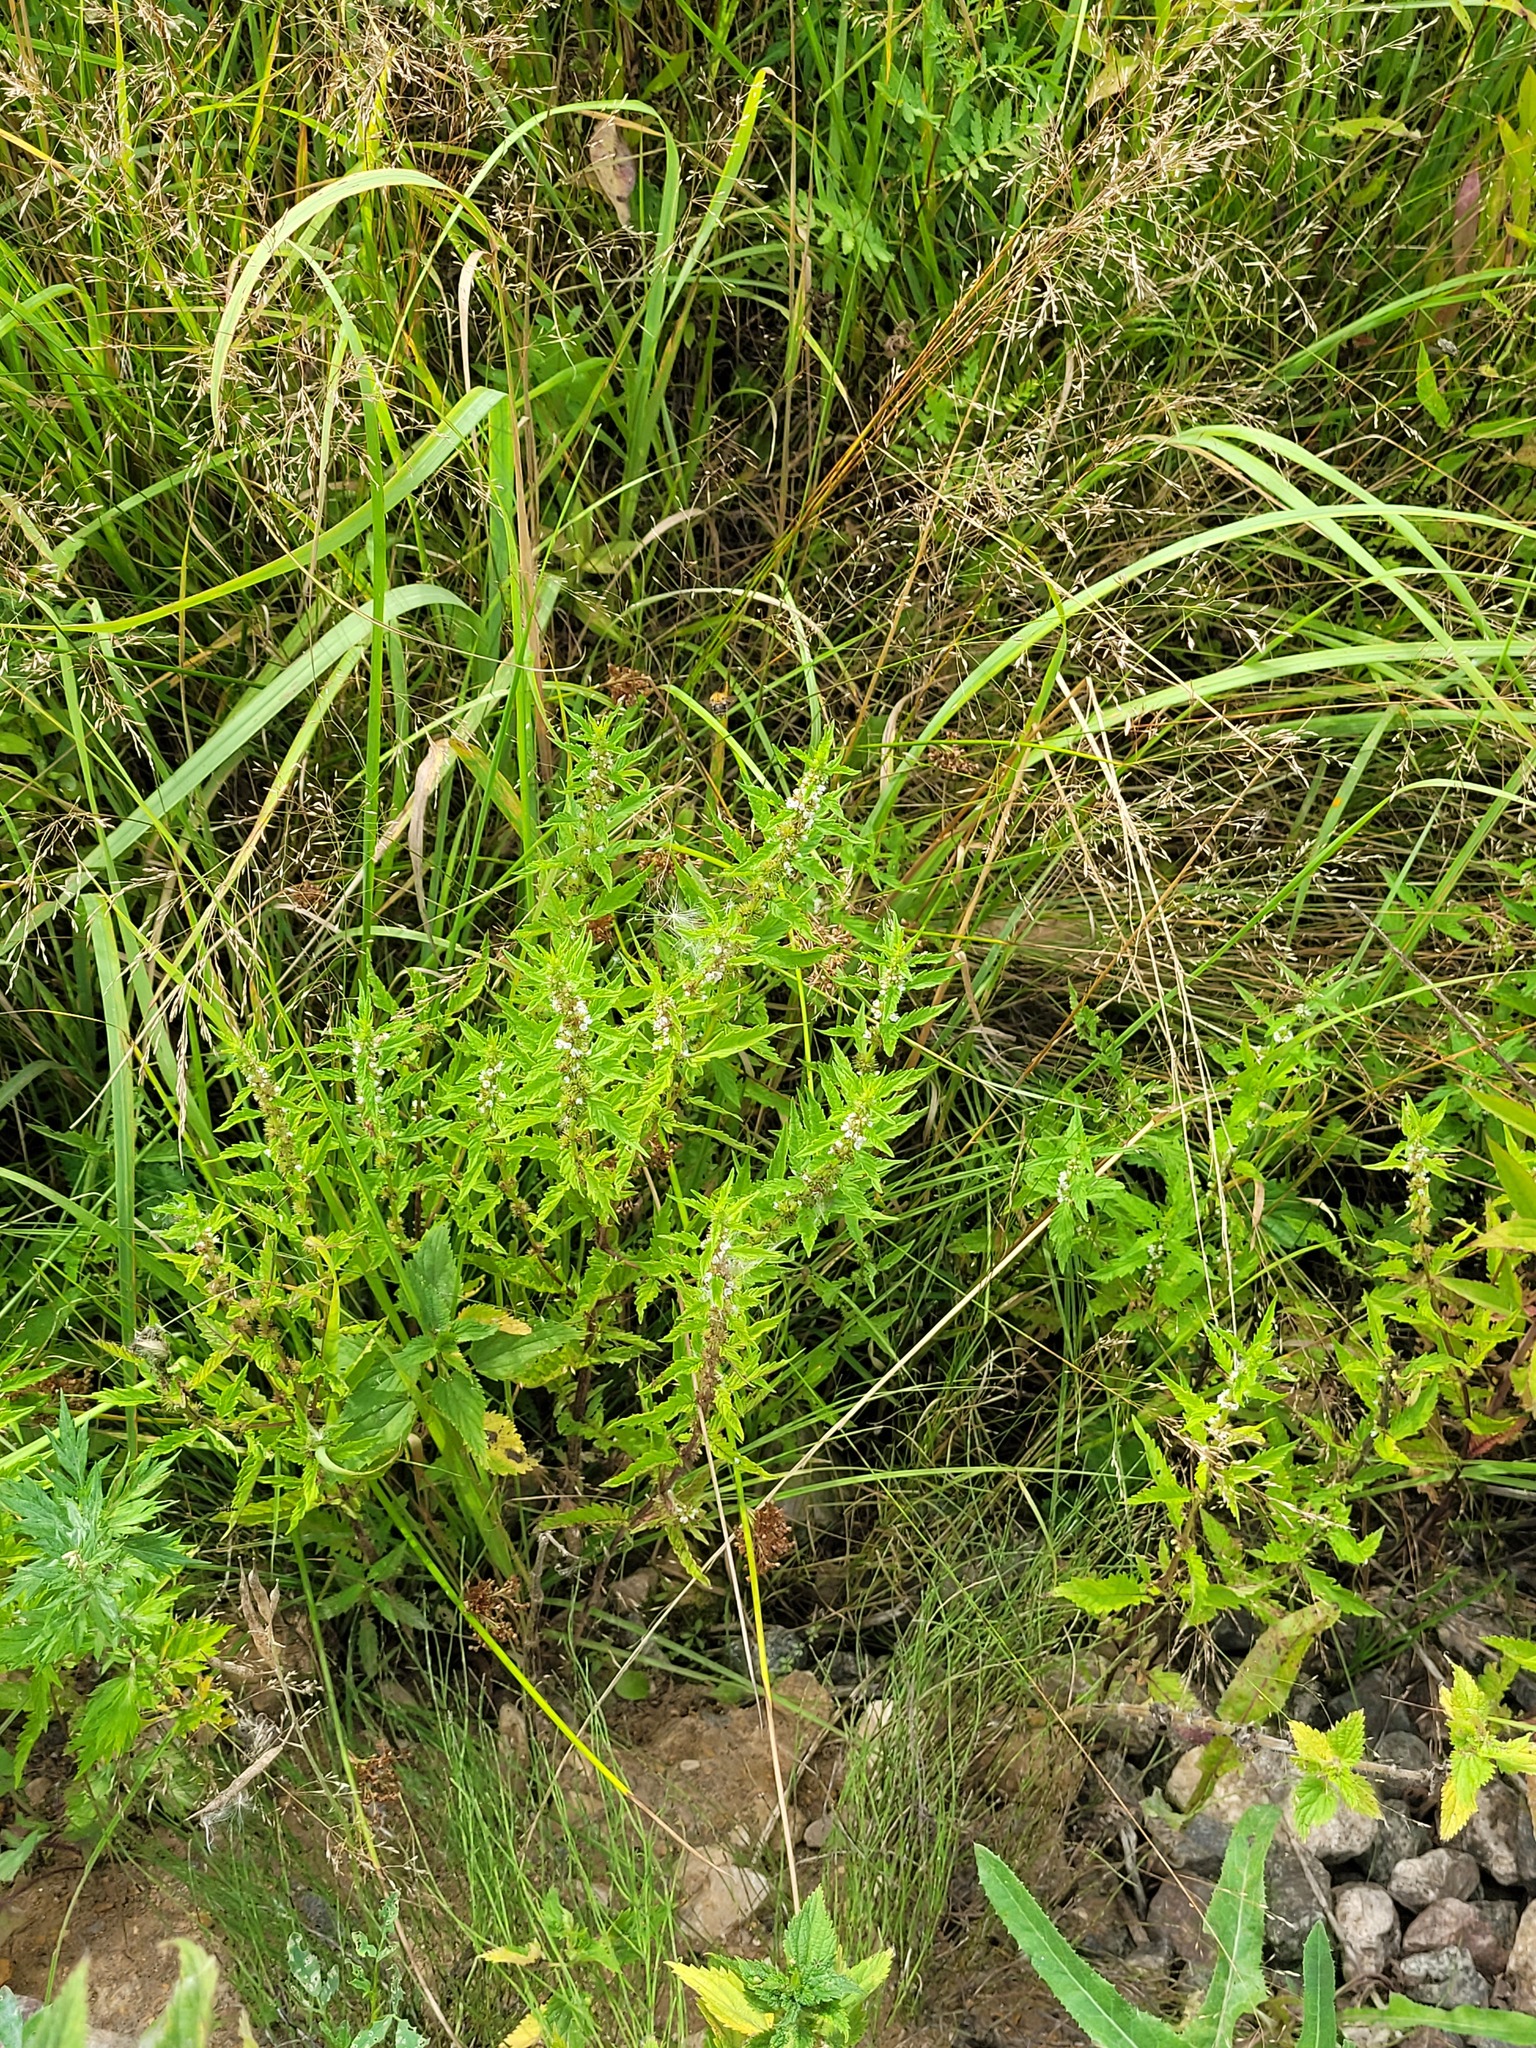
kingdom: Plantae
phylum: Tracheophyta
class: Magnoliopsida
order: Lamiales
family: Lamiaceae
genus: Lycopus
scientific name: Lycopus europaeus
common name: European bugleweed
